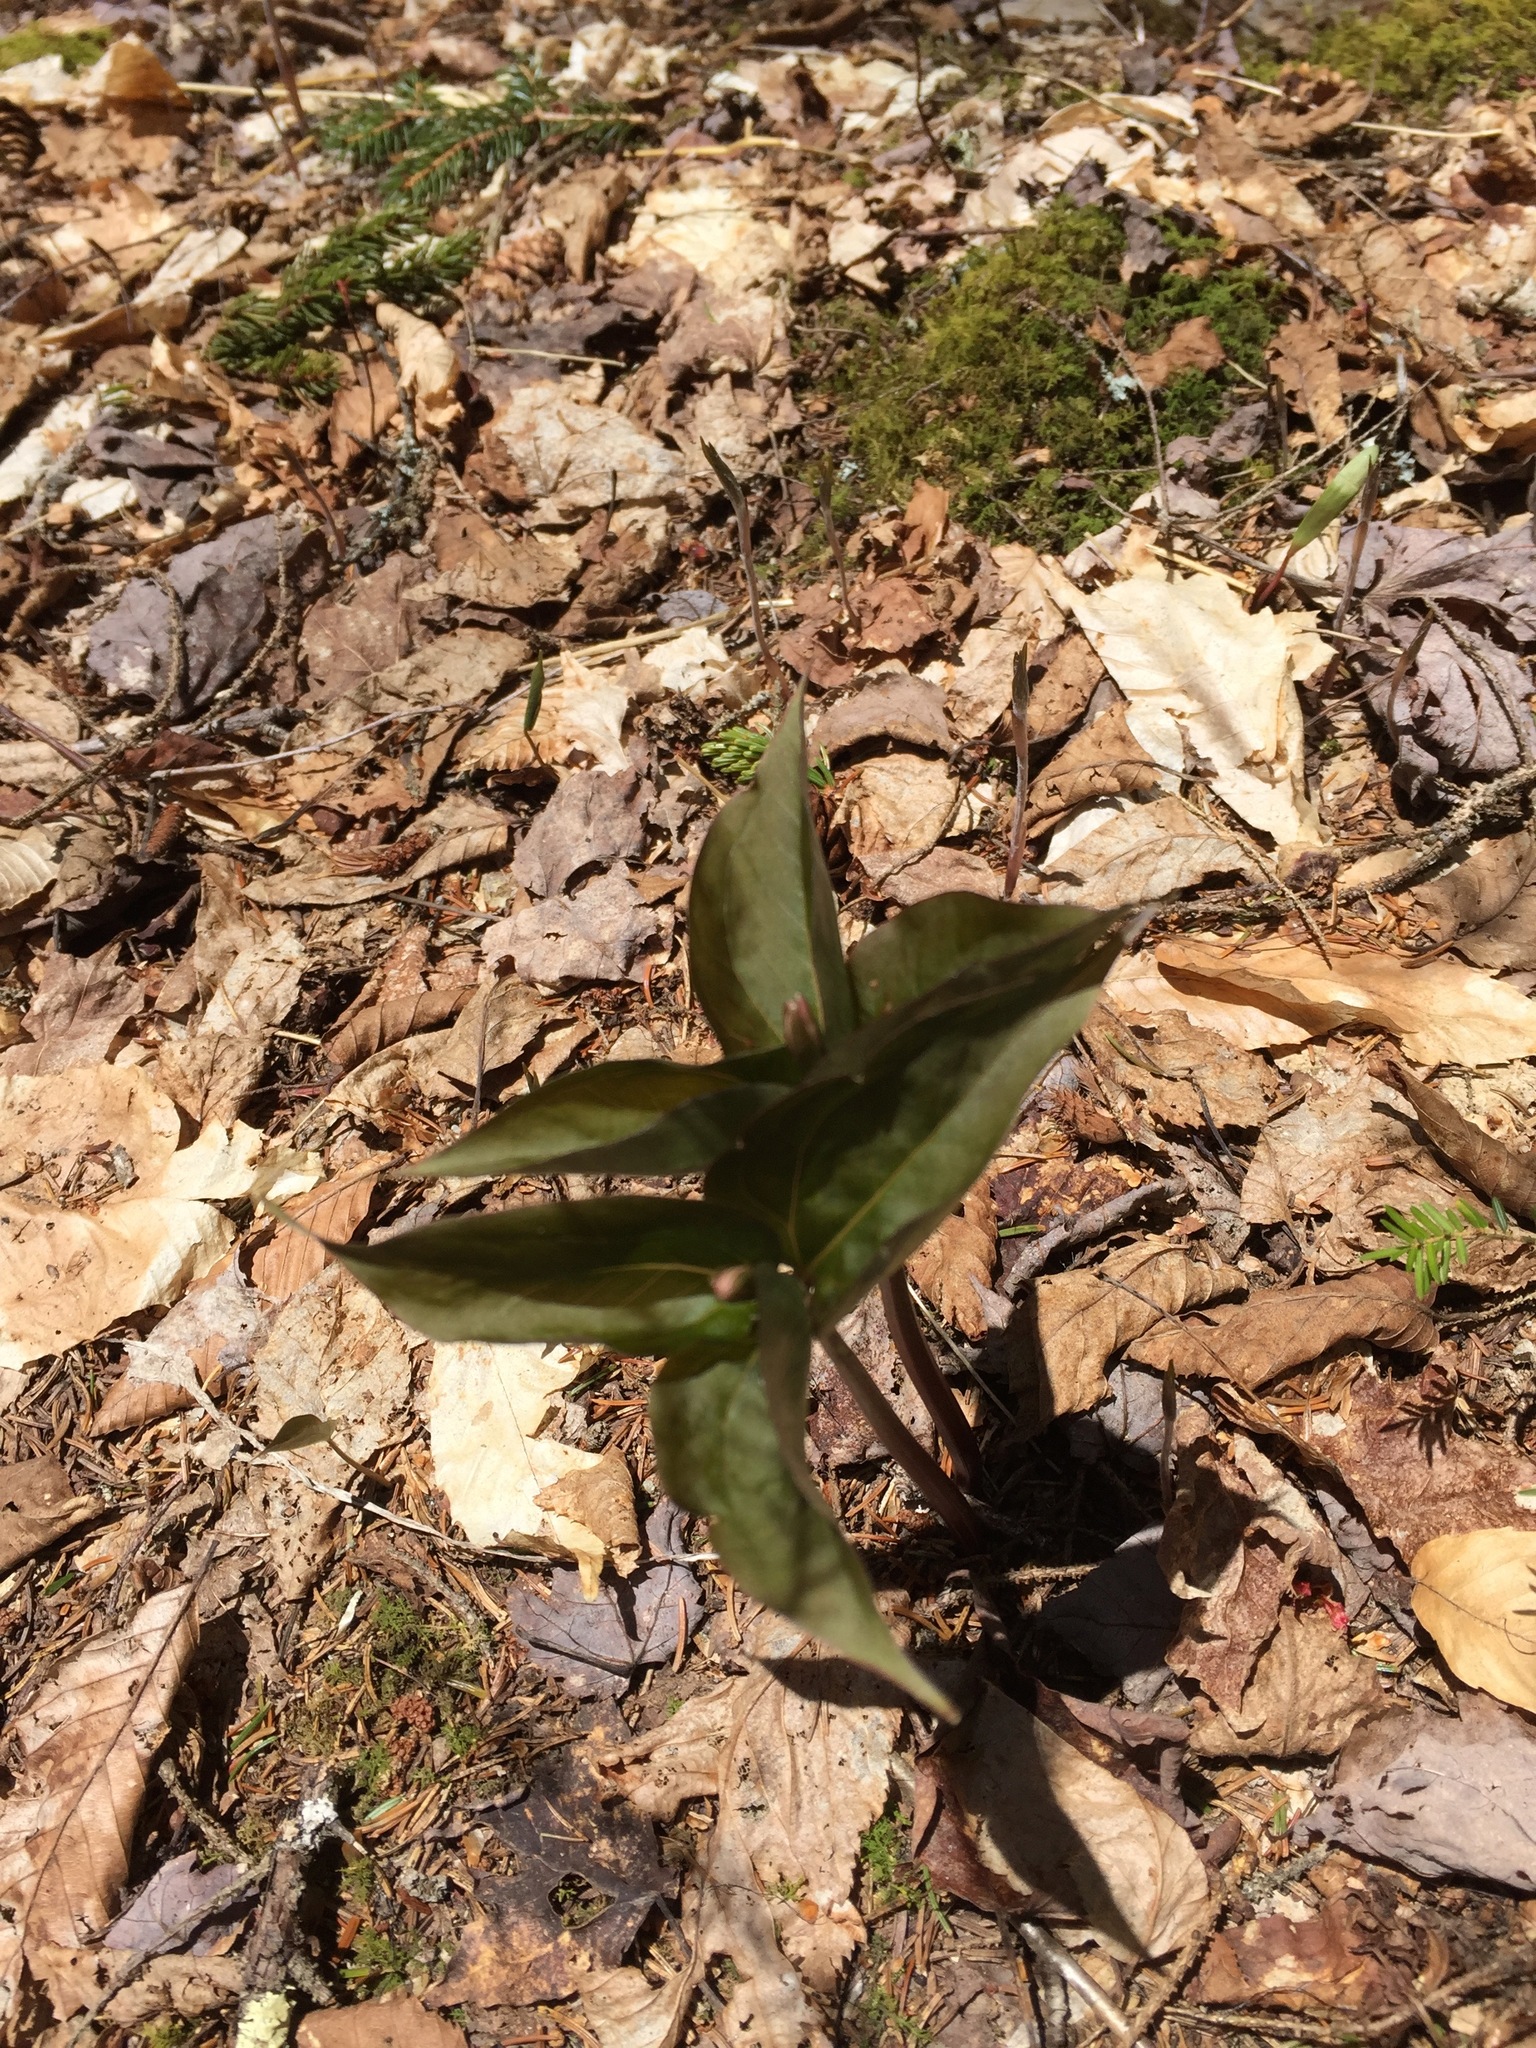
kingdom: Plantae
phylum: Tracheophyta
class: Liliopsida
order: Liliales
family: Melanthiaceae
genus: Trillium
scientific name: Trillium undulatum
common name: Paint trillium
